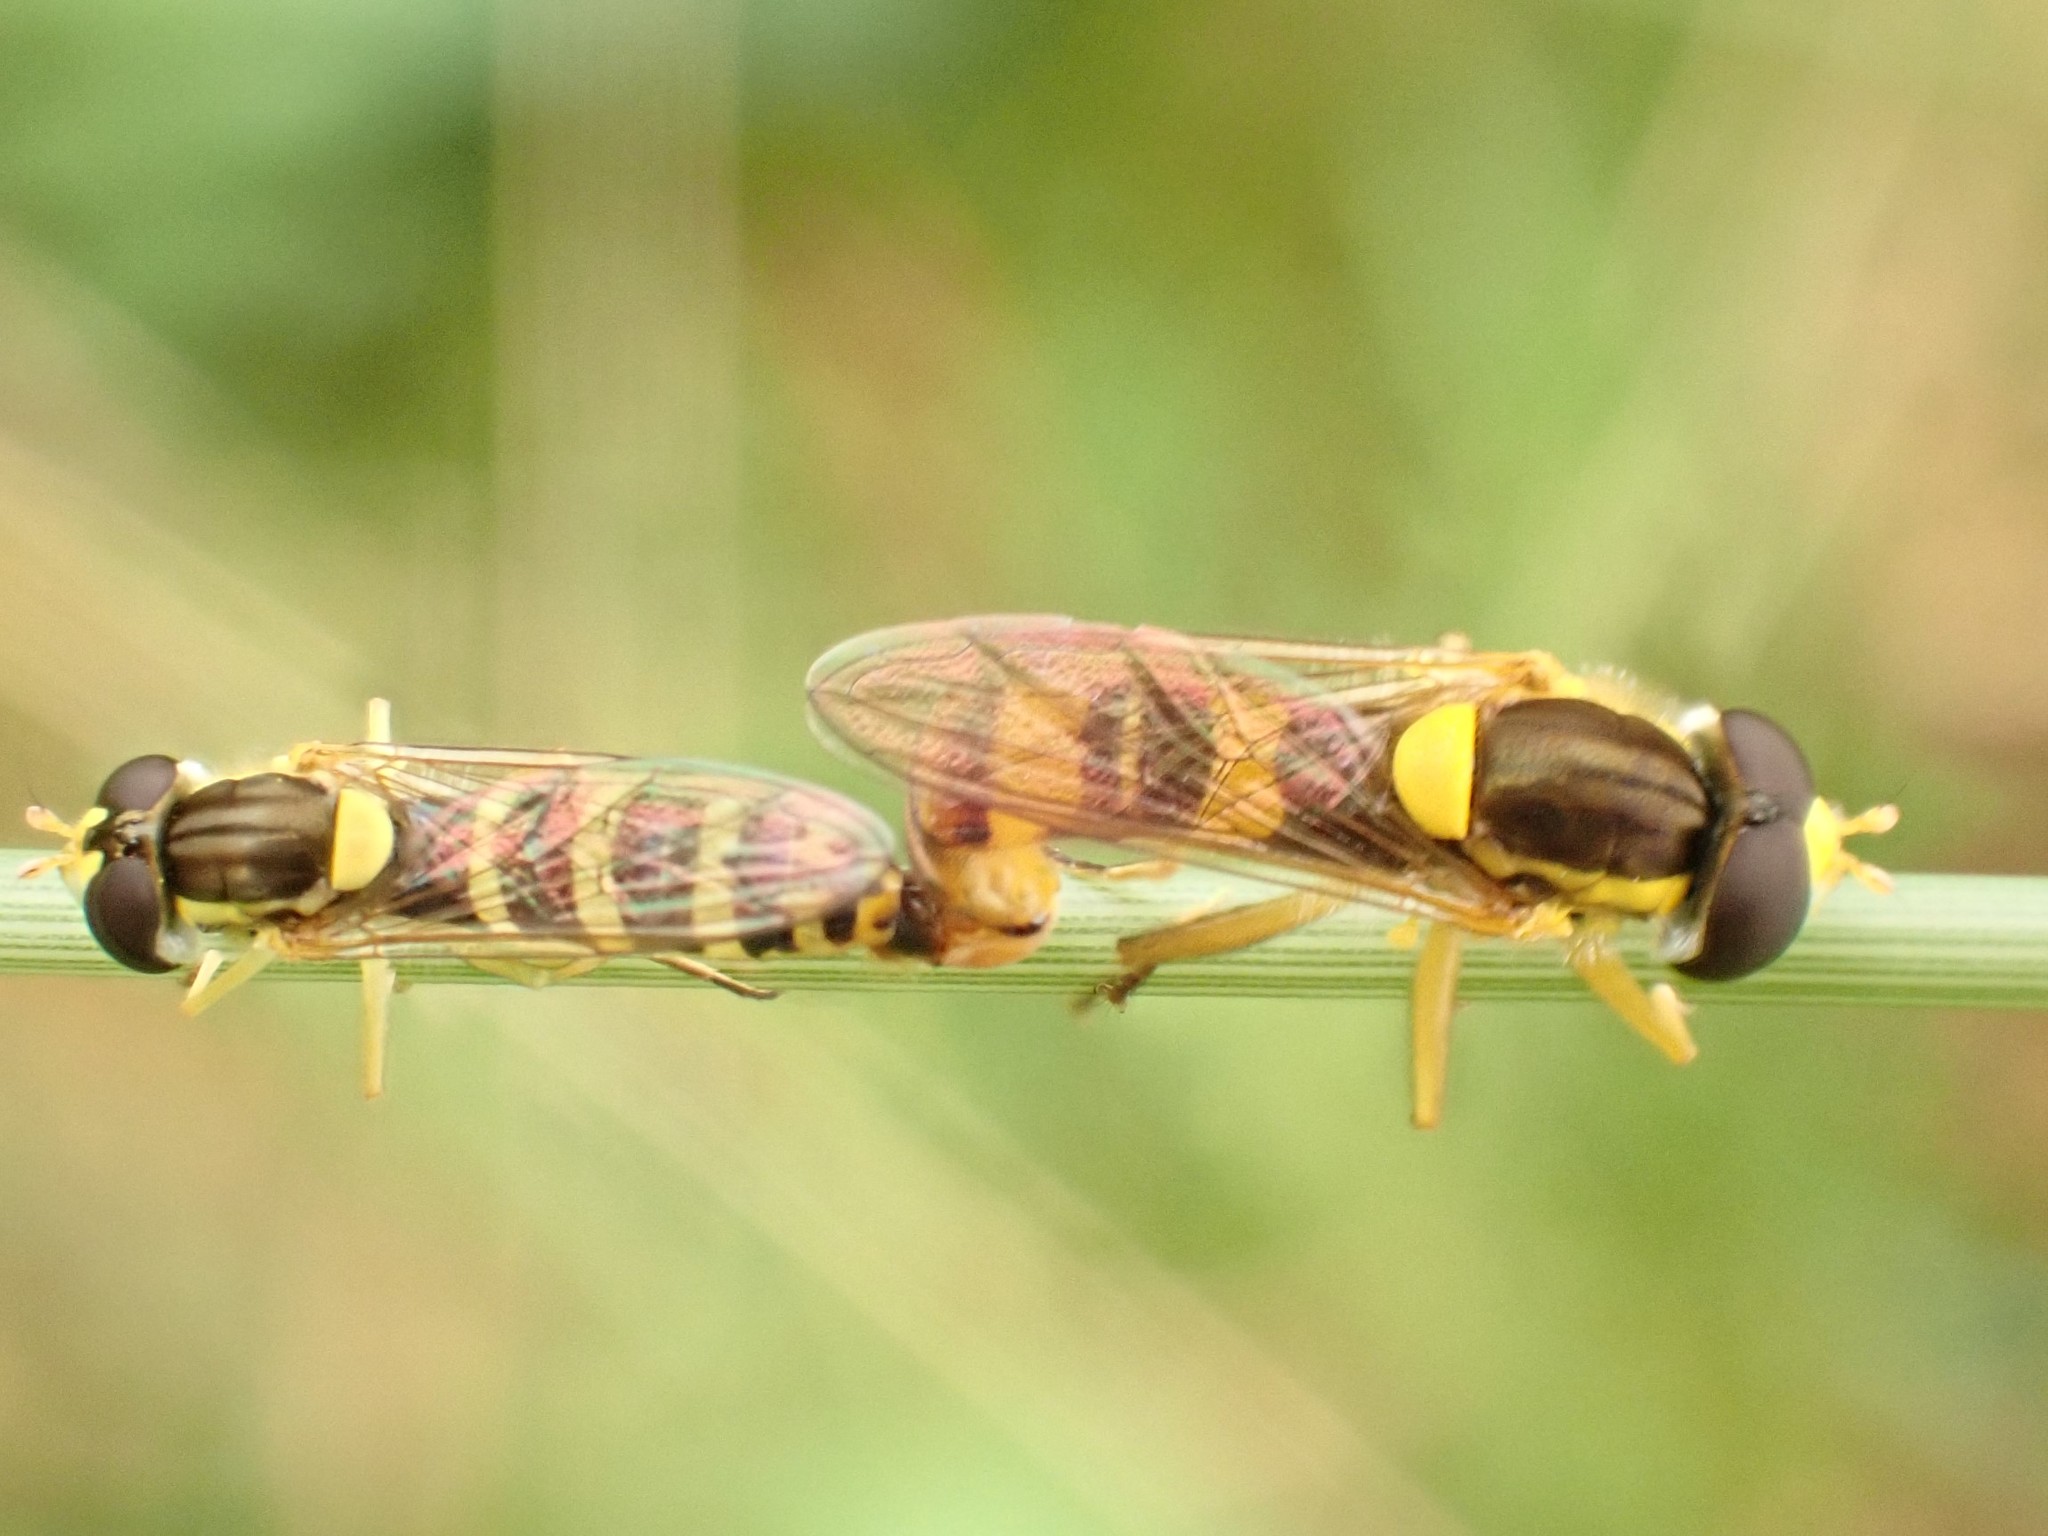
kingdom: Animalia
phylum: Arthropoda
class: Insecta
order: Diptera
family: Syrphidae
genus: Sphaerophoria
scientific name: Sphaerophoria scripta
